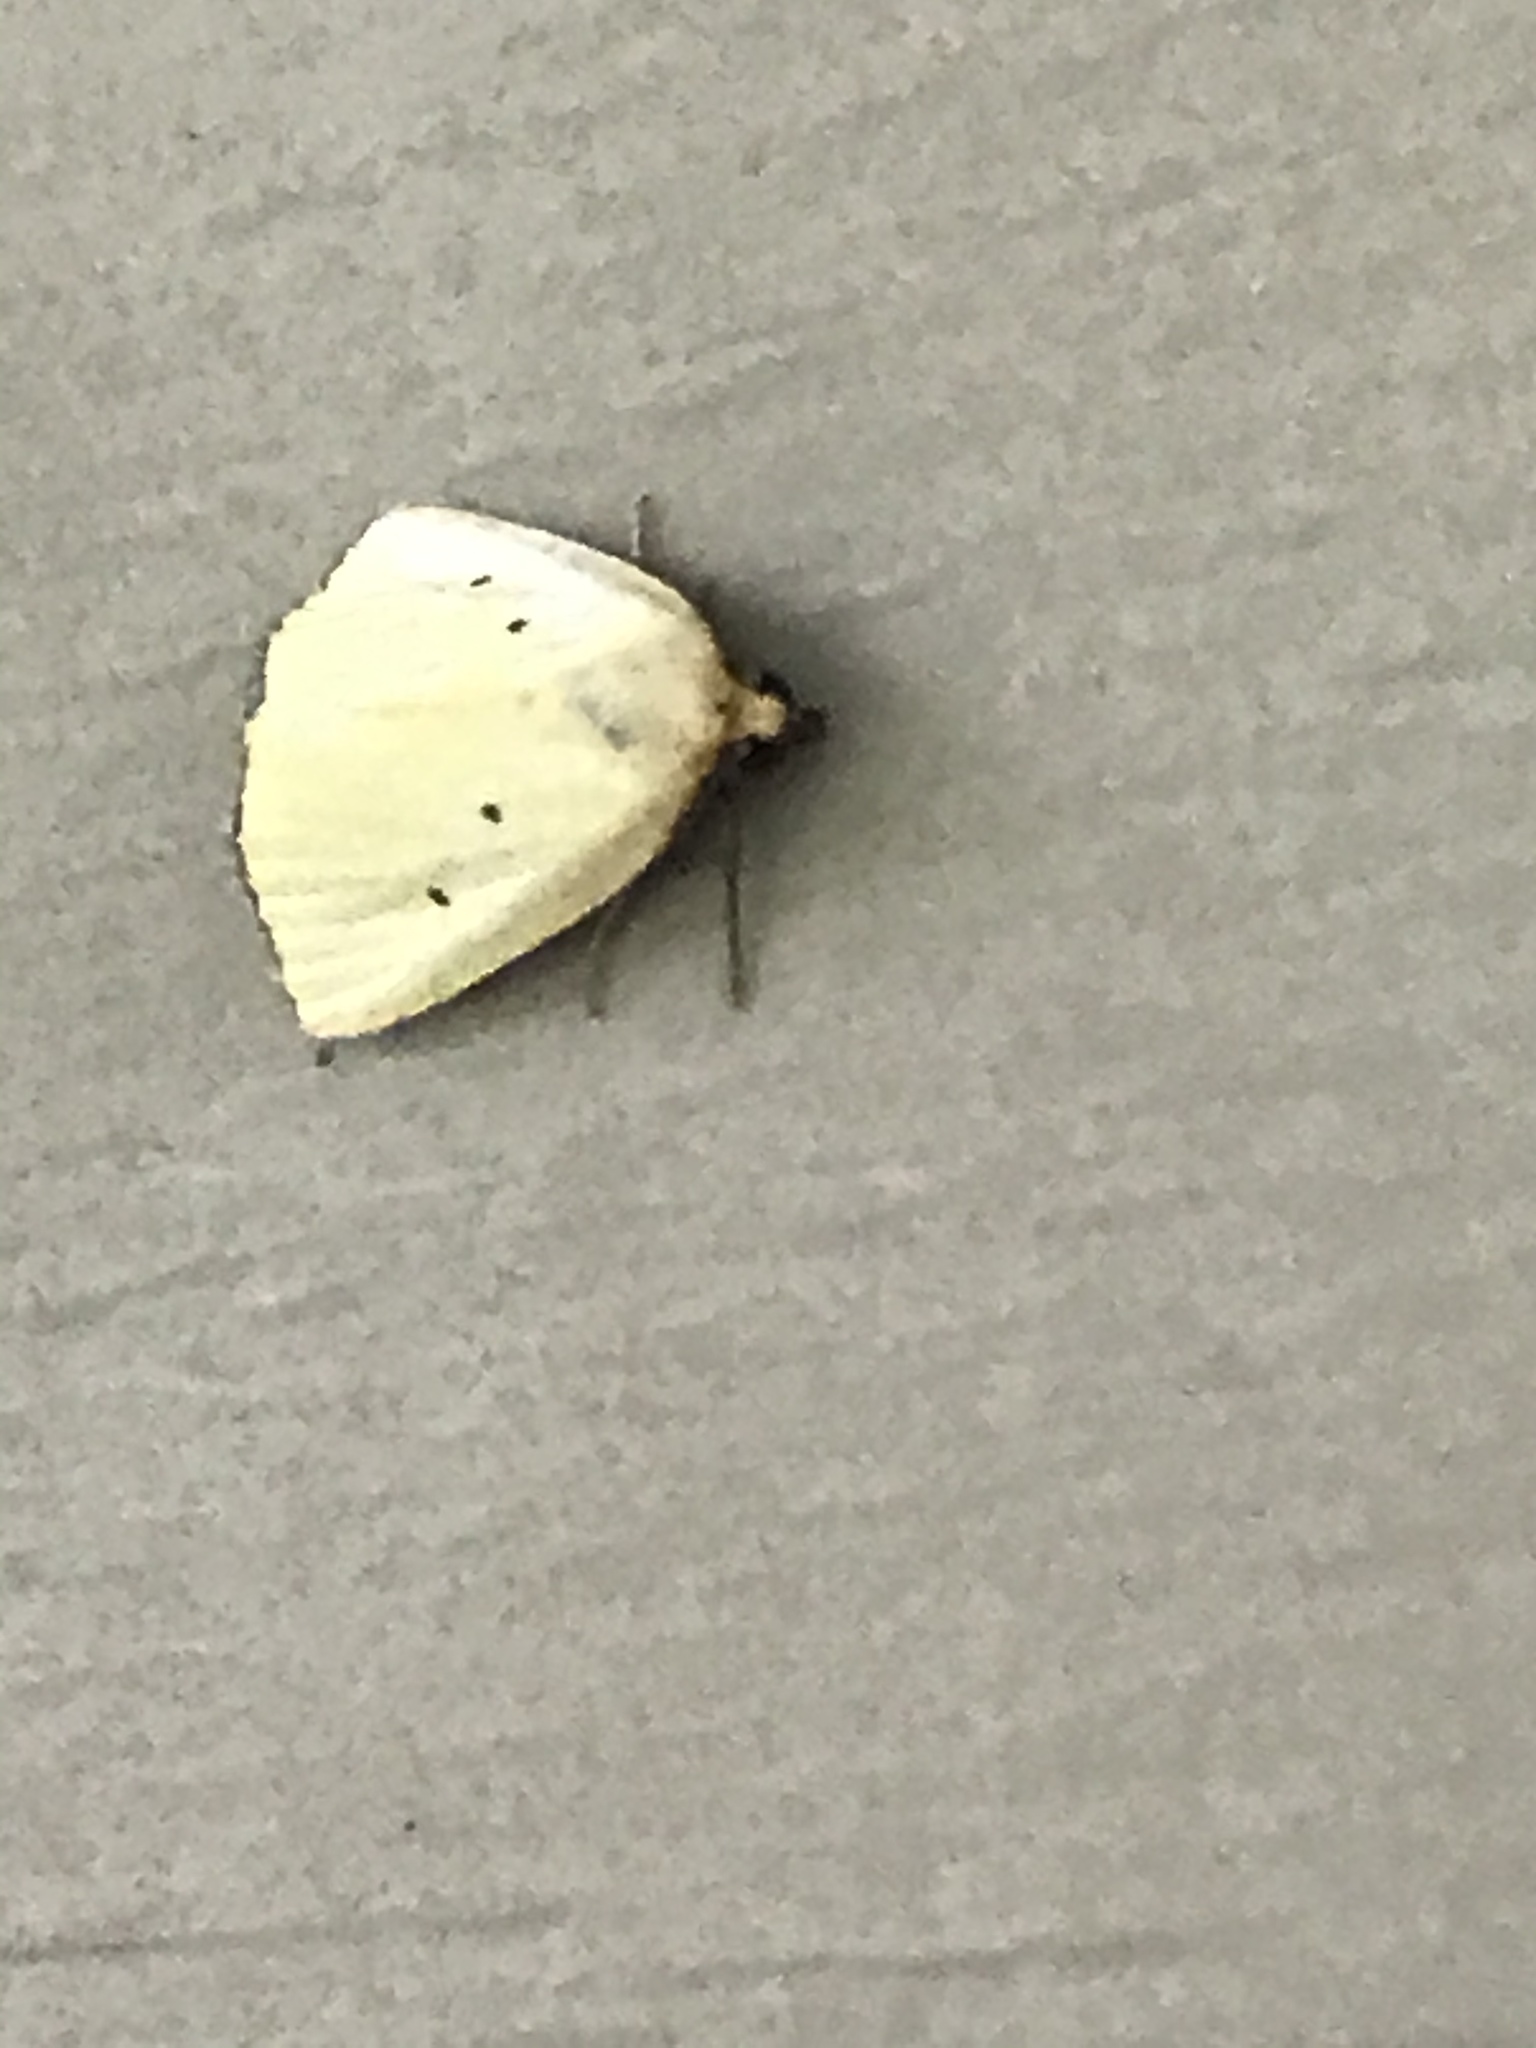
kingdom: Animalia
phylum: Arthropoda
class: Insecta
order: Lepidoptera
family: Noctuidae
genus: Marimatha
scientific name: Marimatha nigrofimbria
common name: Black-bordered lemon moth
